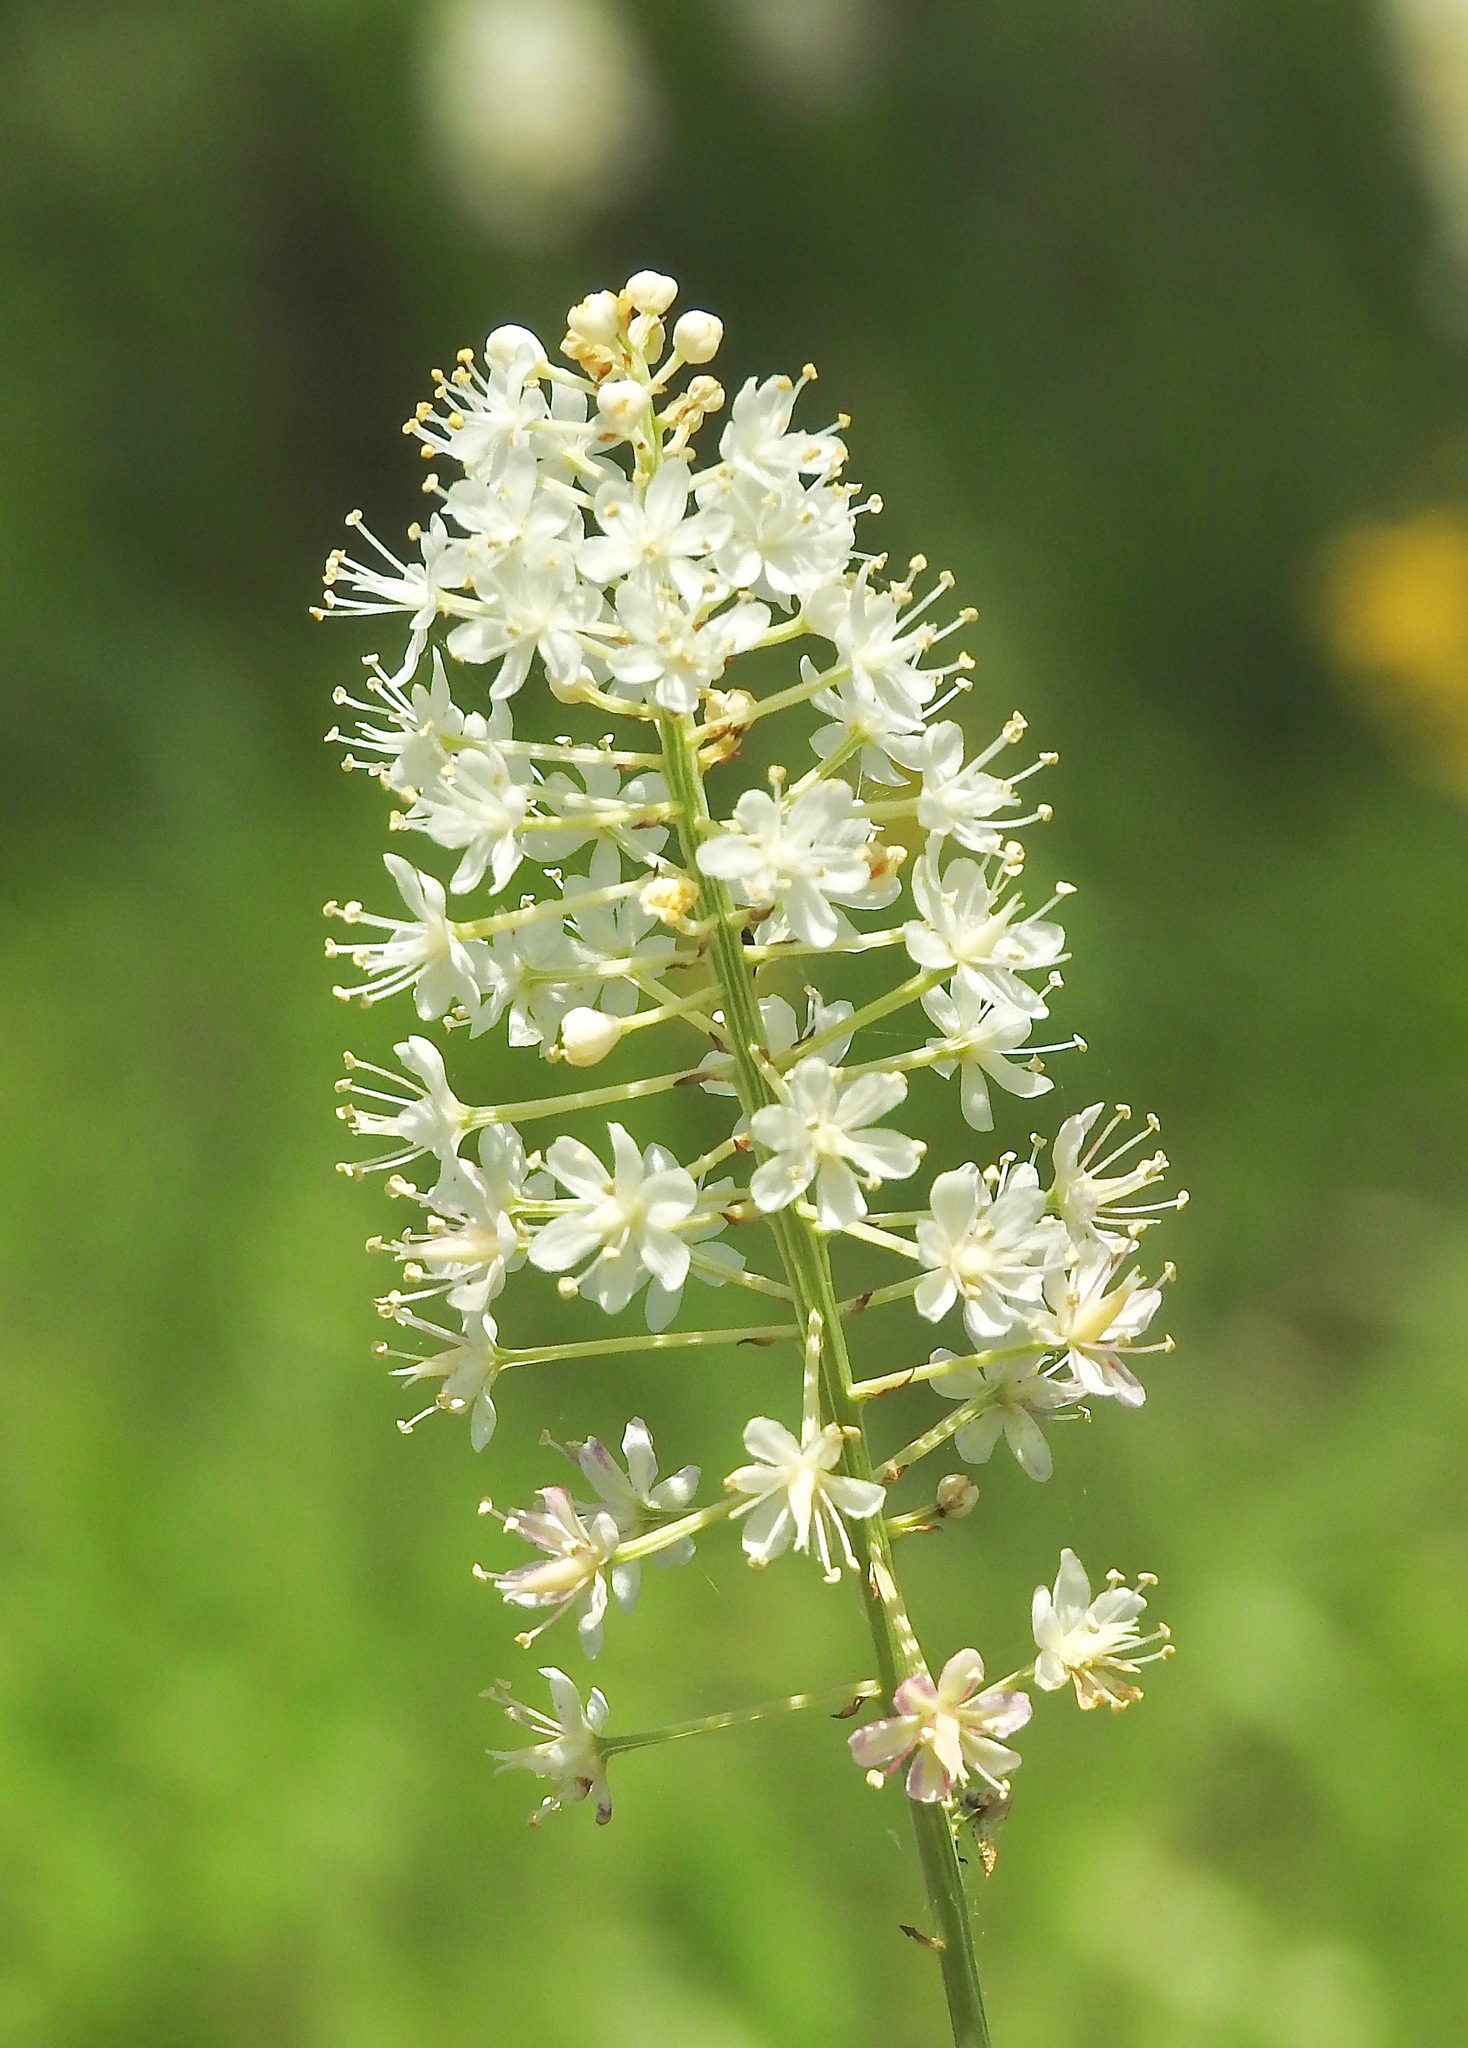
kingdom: Plantae
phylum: Tracheophyta
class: Liliopsida
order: Liliales
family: Melanthiaceae
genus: Stenanthium
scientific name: Stenanthium densum
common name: Crow-poison
